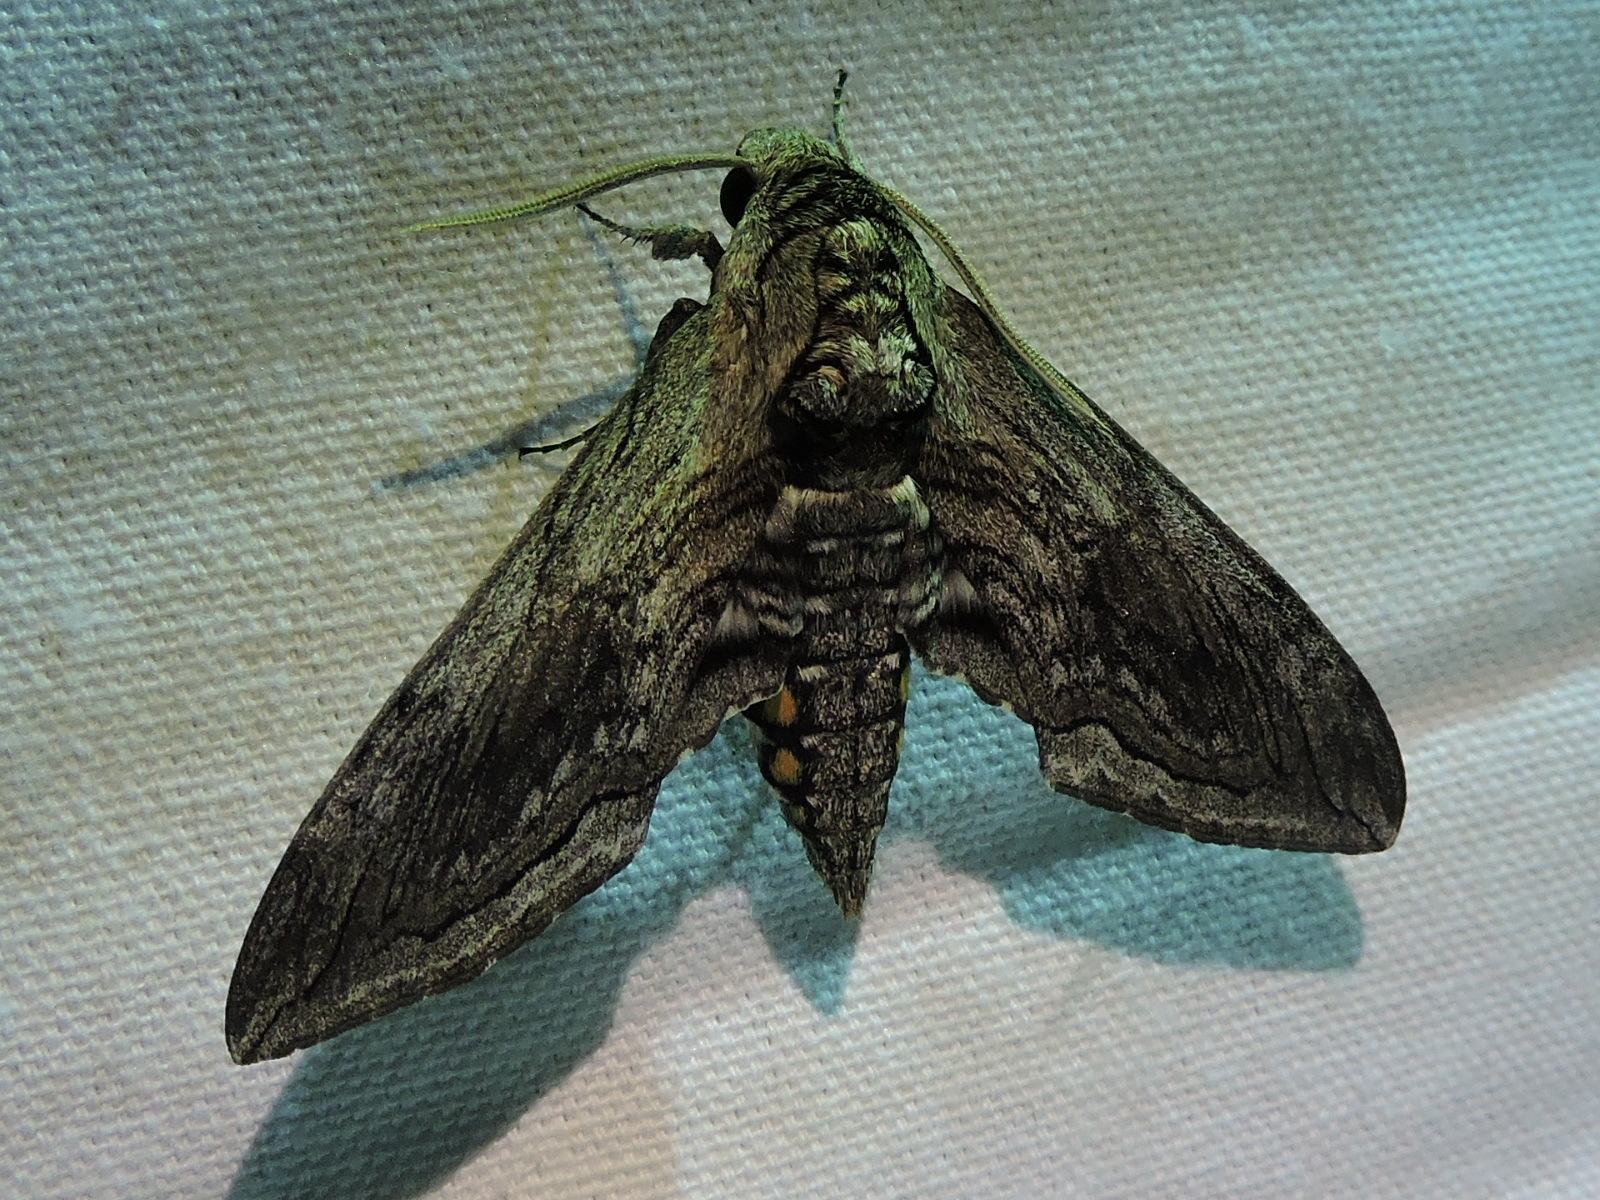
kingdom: Animalia
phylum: Arthropoda
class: Insecta
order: Lepidoptera
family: Sphingidae
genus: Manduca
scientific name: Manduca quinquemaculatus
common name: Five-spotted hawk-moth
